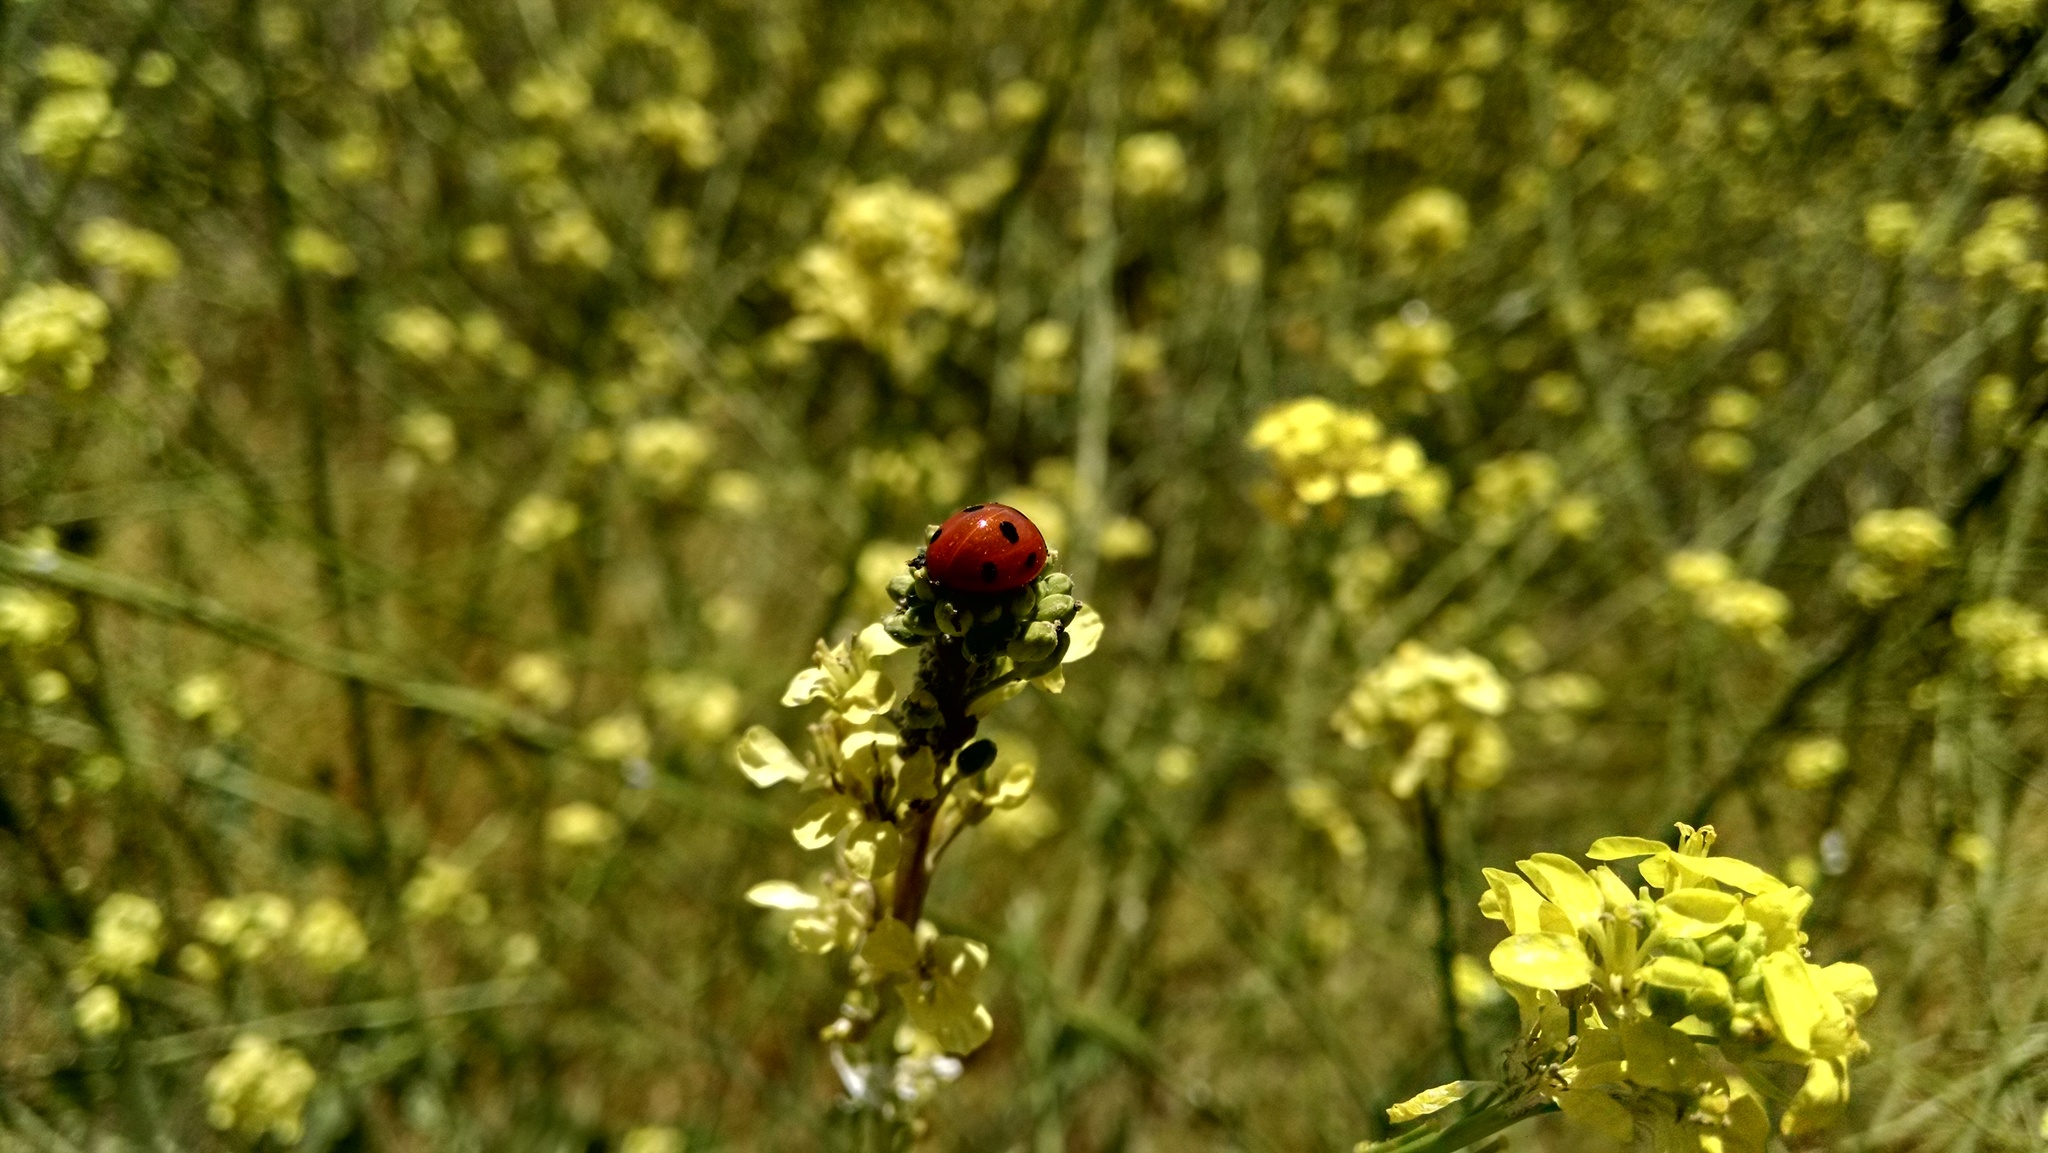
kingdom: Animalia
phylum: Arthropoda
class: Insecta
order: Coleoptera
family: Coccinellidae
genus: Coccinella
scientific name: Coccinella septempunctata
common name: Sevenspotted lady beetle
